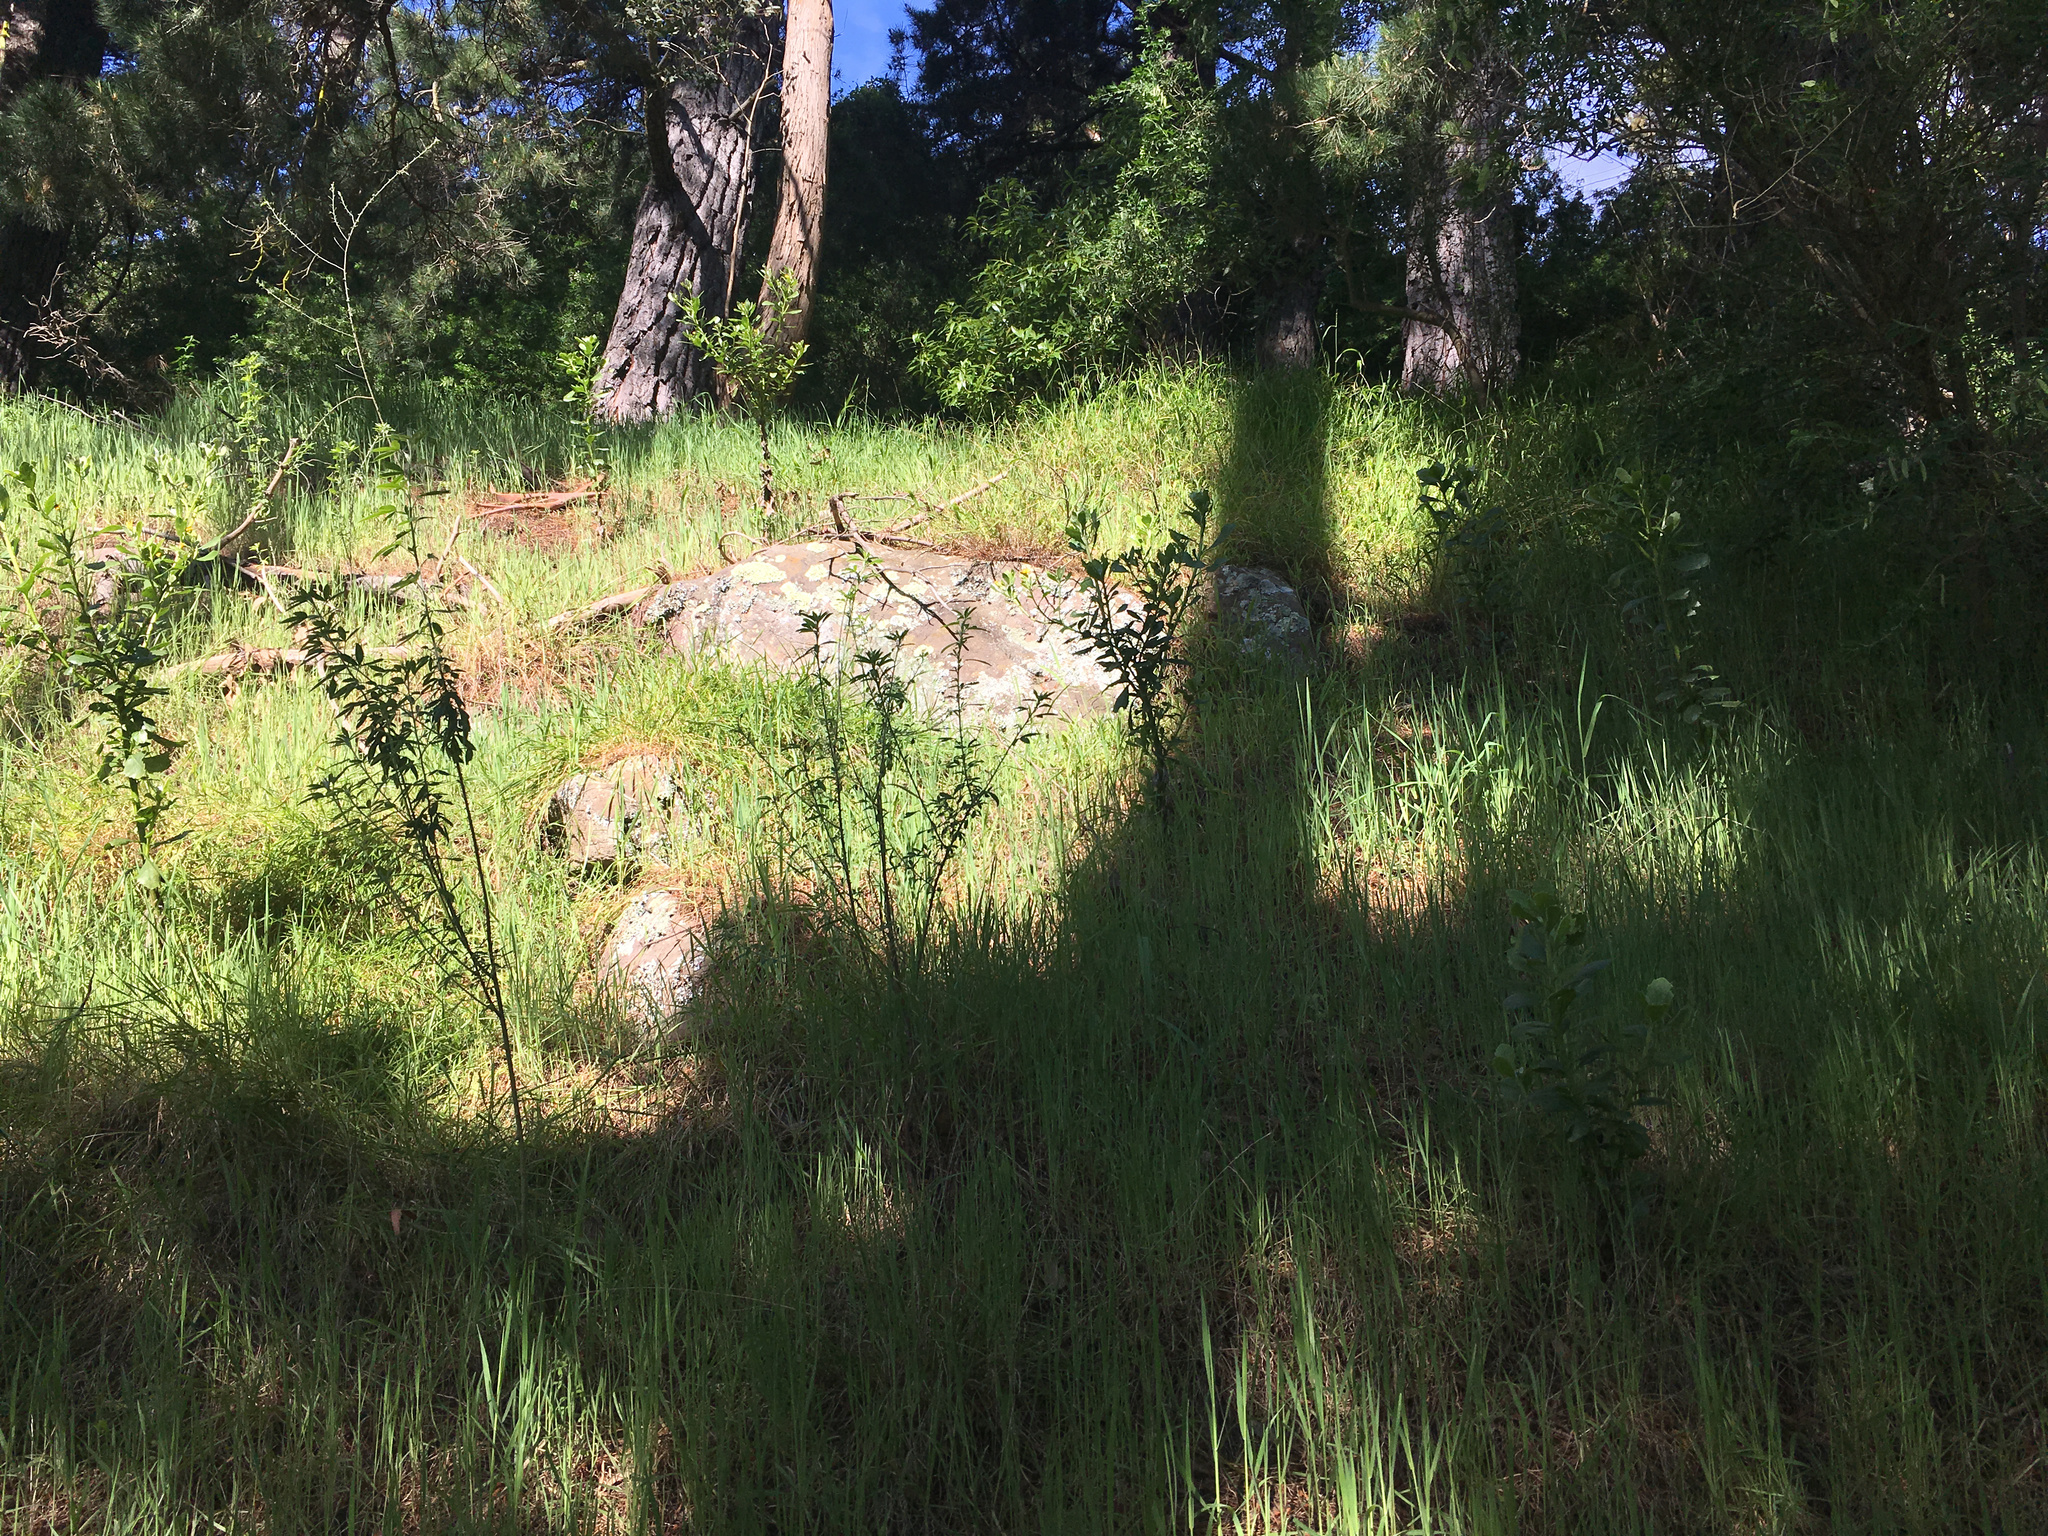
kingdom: Plantae
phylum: Tracheophyta
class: Magnoliopsida
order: Asterales
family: Asteraceae
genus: Osteospermum
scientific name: Osteospermum moniliferum
